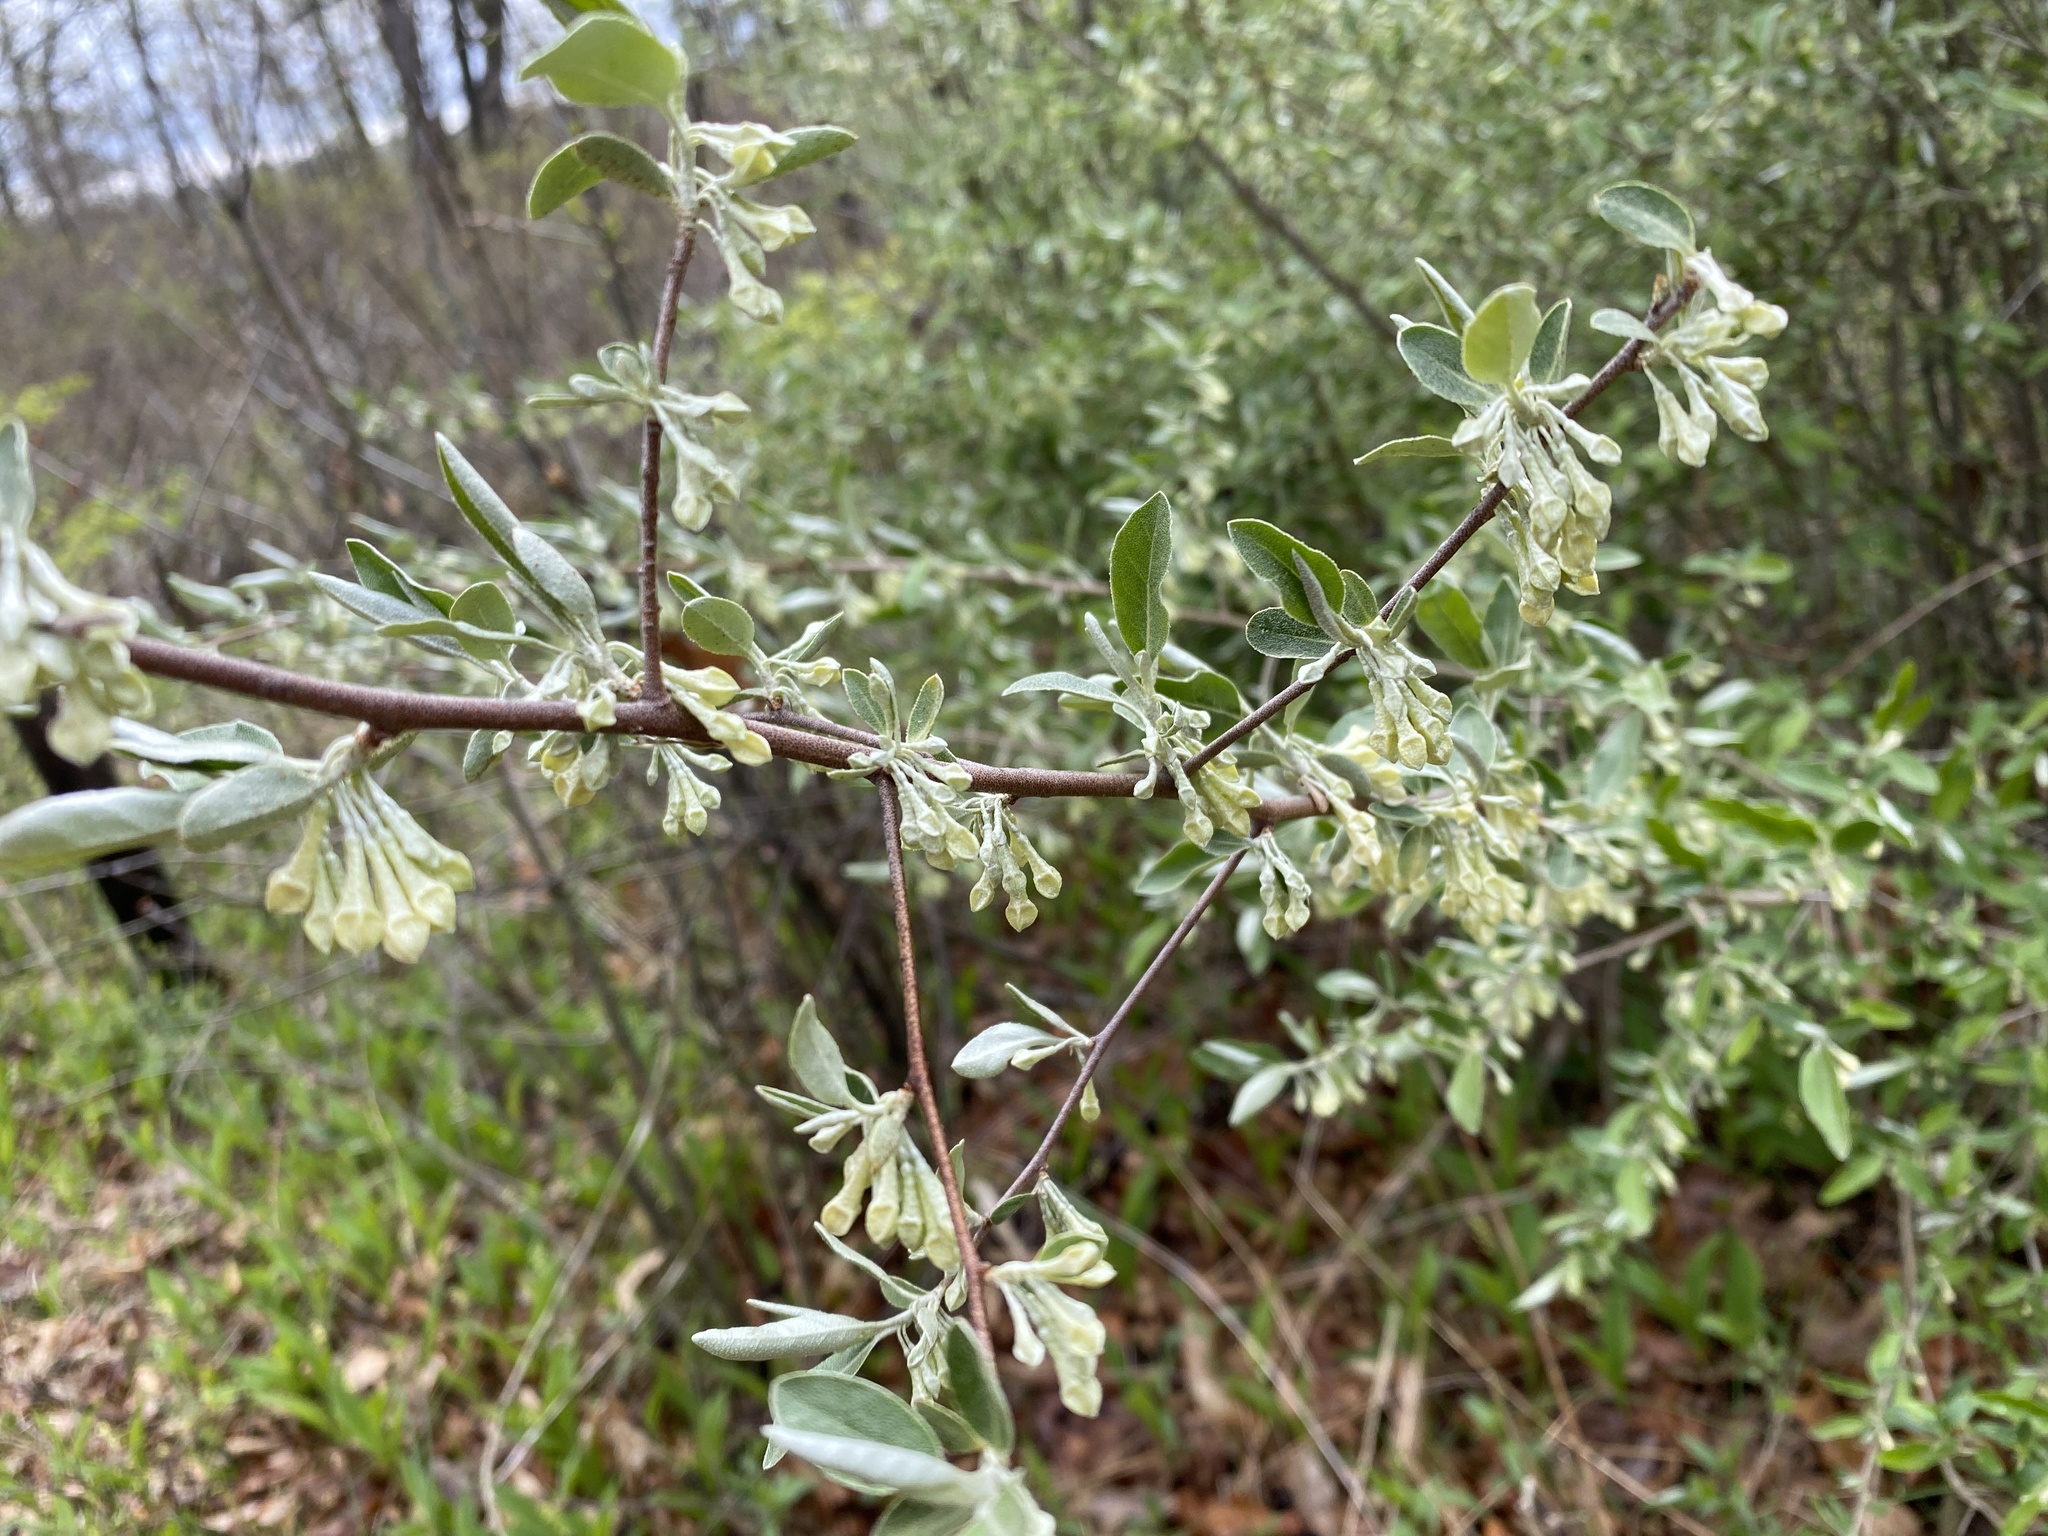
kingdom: Plantae
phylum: Tracheophyta
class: Magnoliopsida
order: Rosales
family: Elaeagnaceae
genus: Elaeagnus
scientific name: Elaeagnus umbellata
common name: Autumn olive
